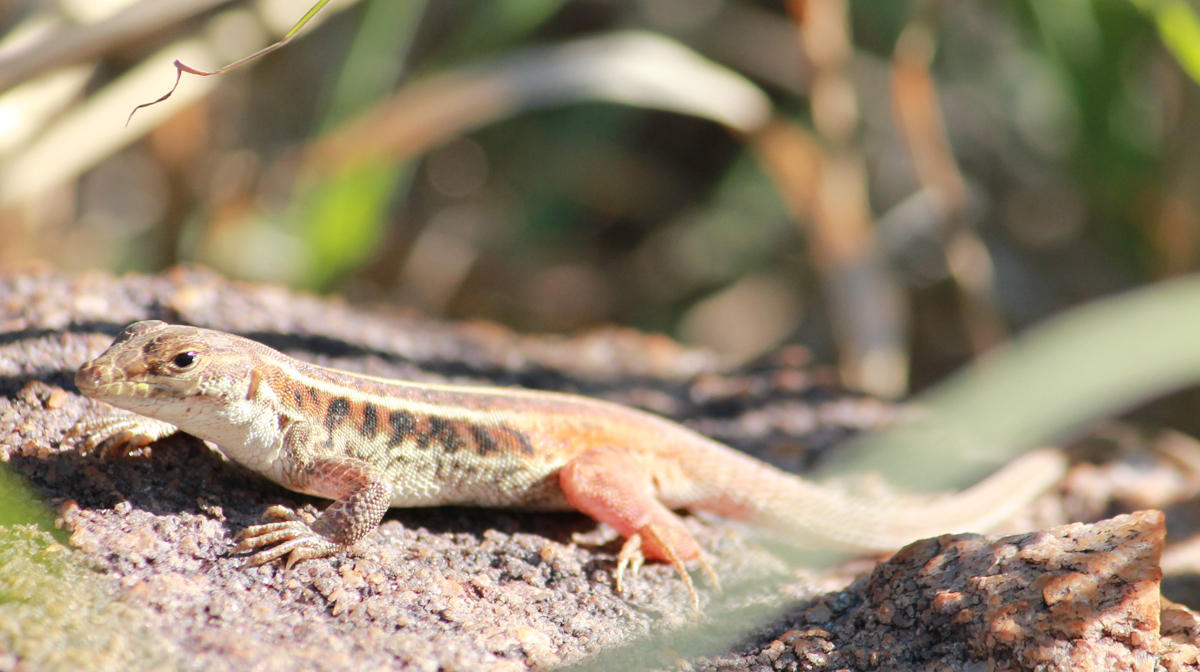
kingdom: Animalia
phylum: Chordata
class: Squamata
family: Lacertidae
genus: Heliobolus
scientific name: Heliobolus lugubris
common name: Bushveld lizard
